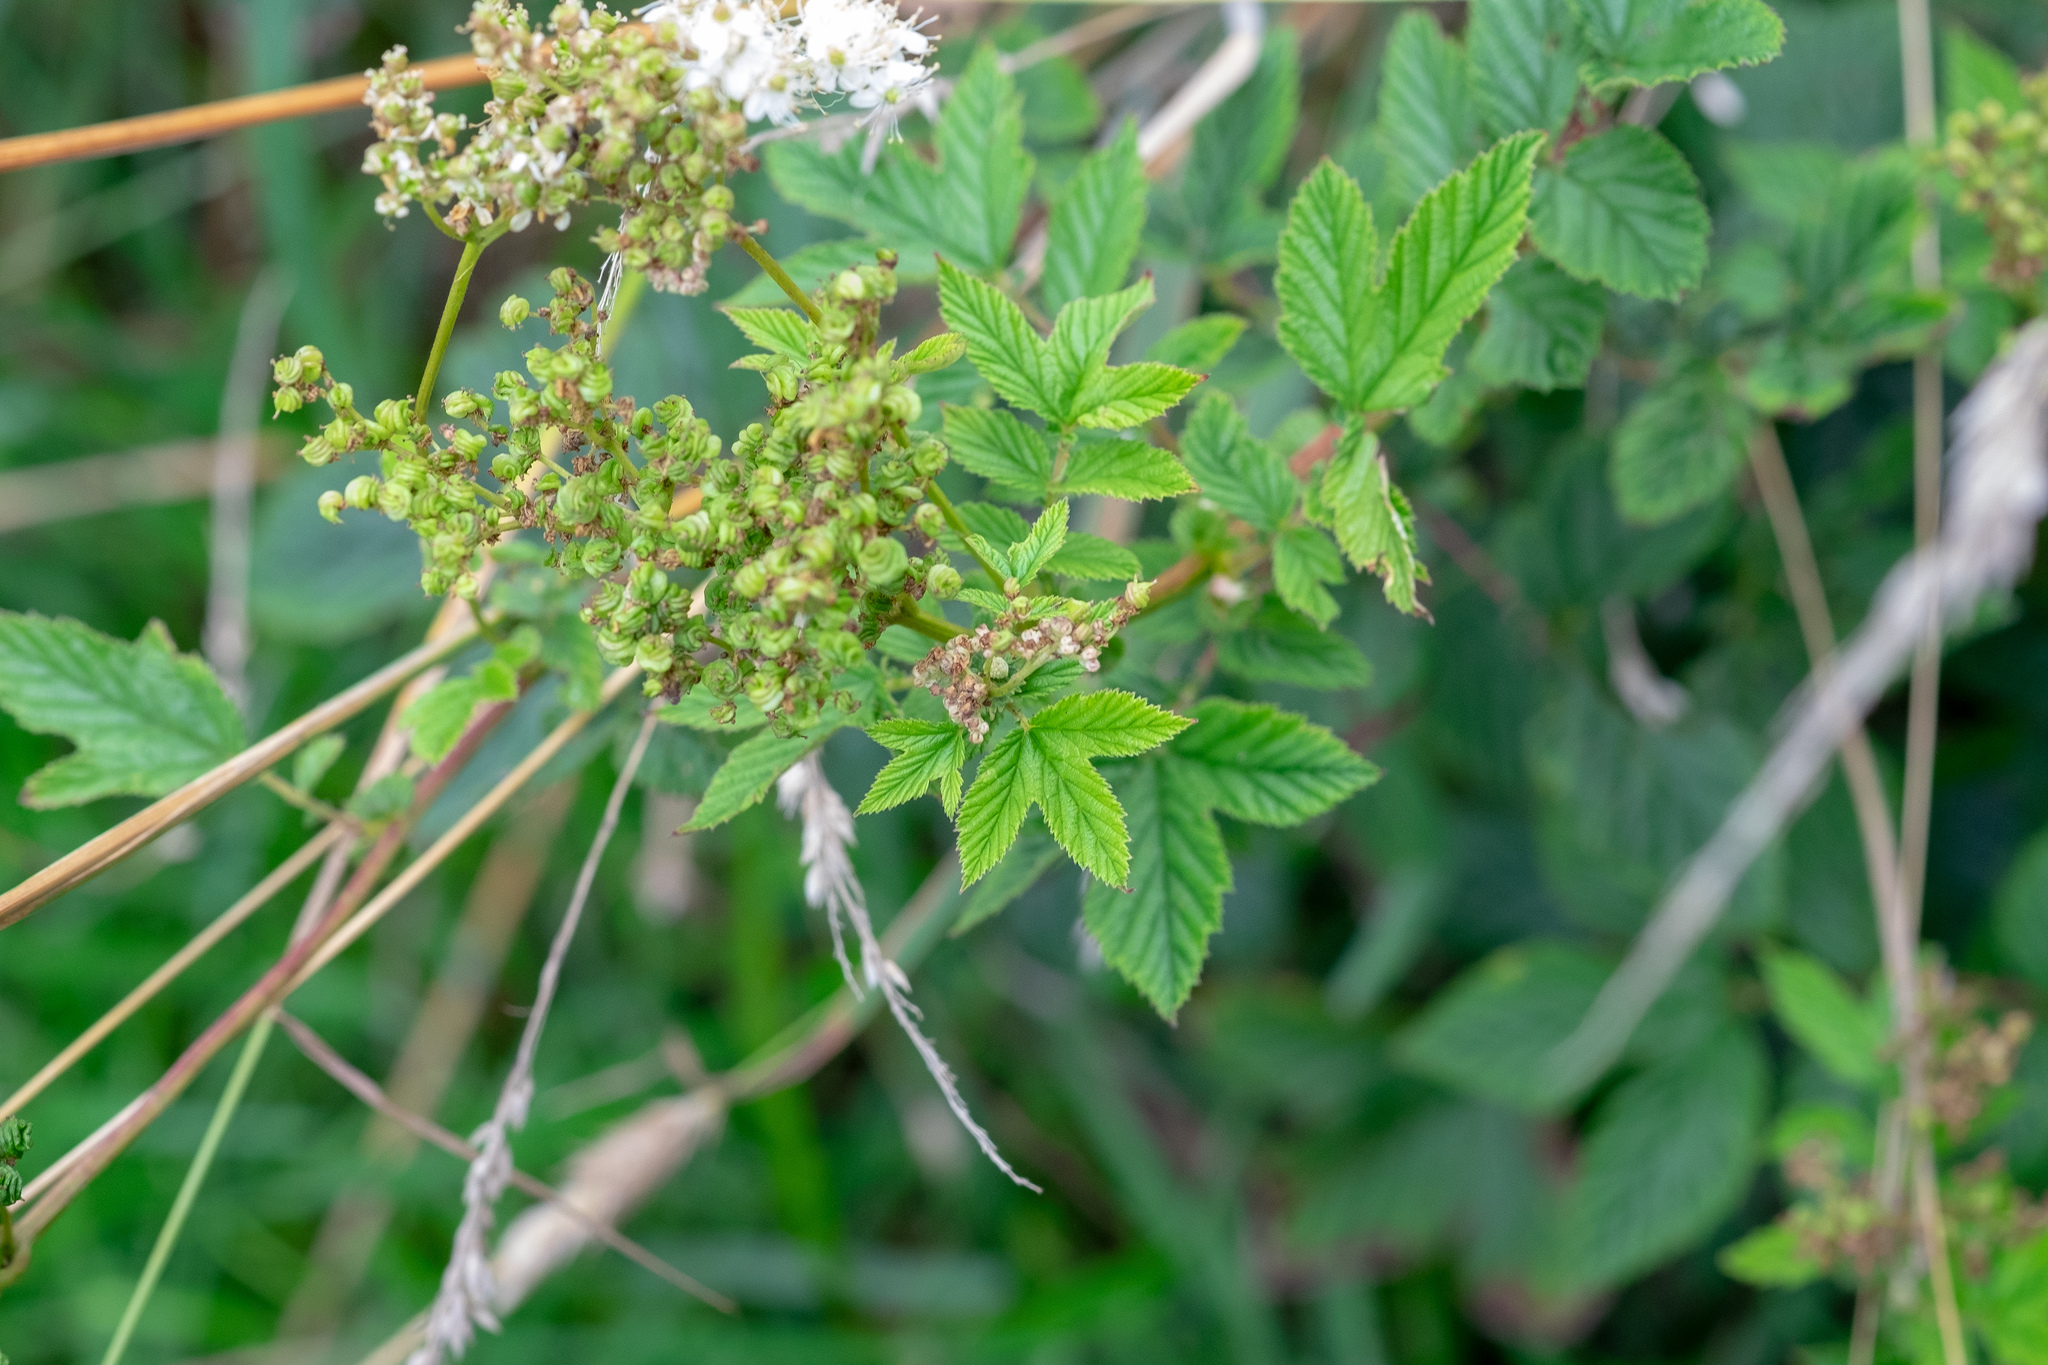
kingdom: Plantae
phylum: Tracheophyta
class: Magnoliopsida
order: Rosales
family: Rosaceae
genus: Filipendula
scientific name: Filipendula ulmaria
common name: Meadowsweet
